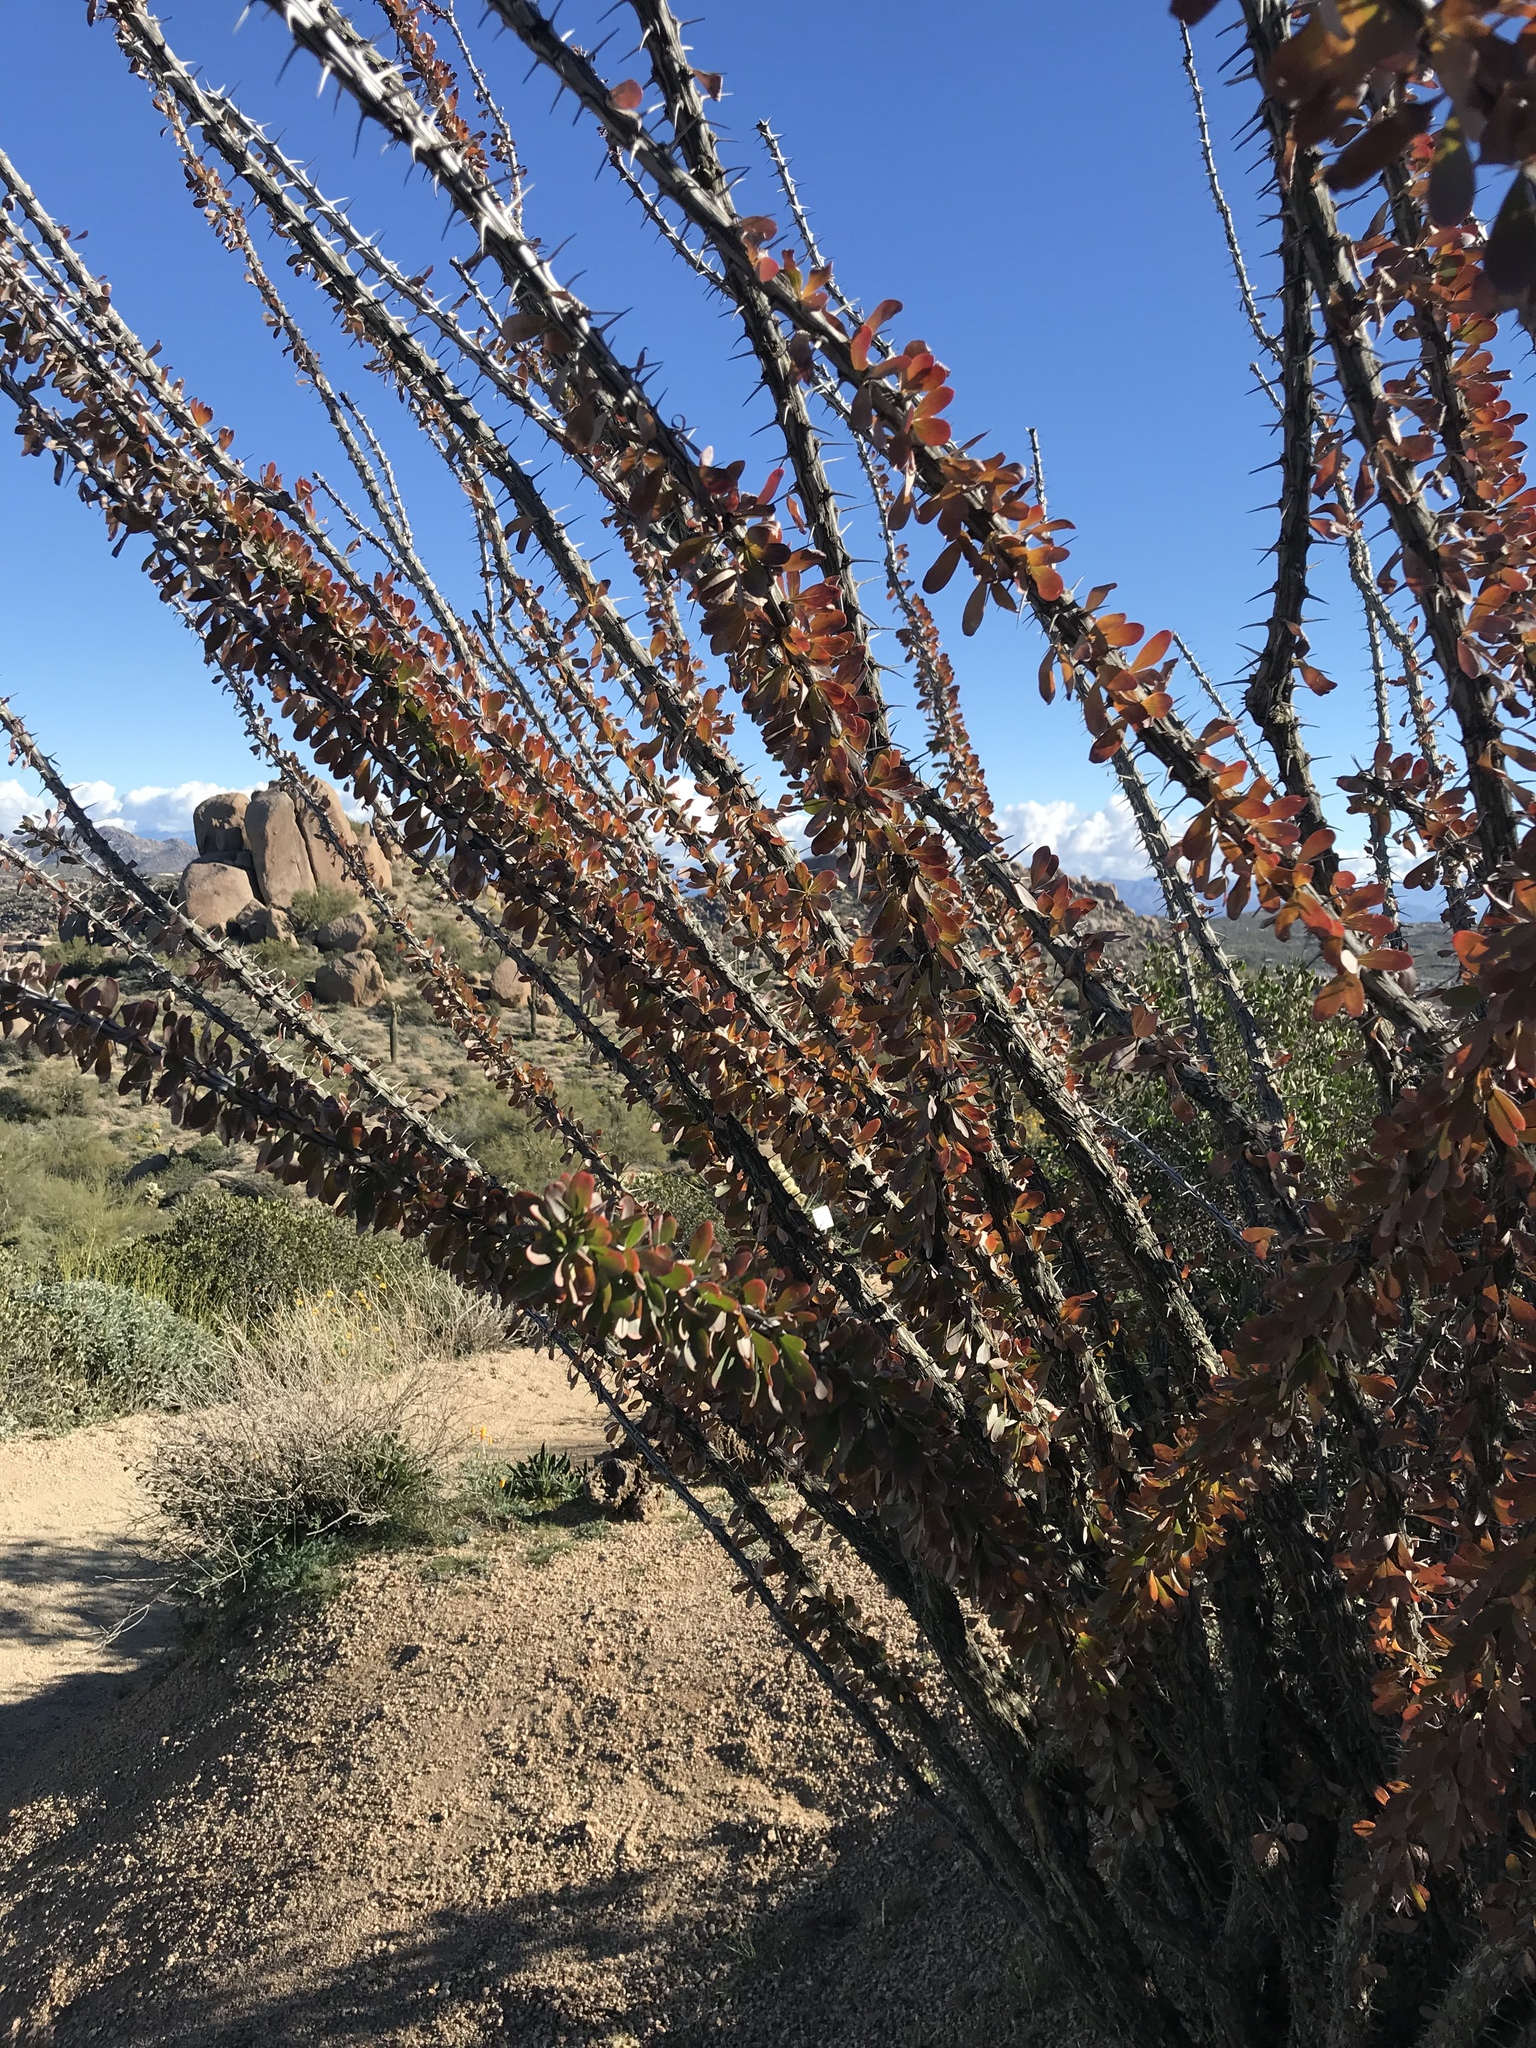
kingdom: Plantae
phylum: Tracheophyta
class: Magnoliopsida
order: Ericales
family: Fouquieriaceae
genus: Fouquieria
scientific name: Fouquieria splendens
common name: Vine-cactus
